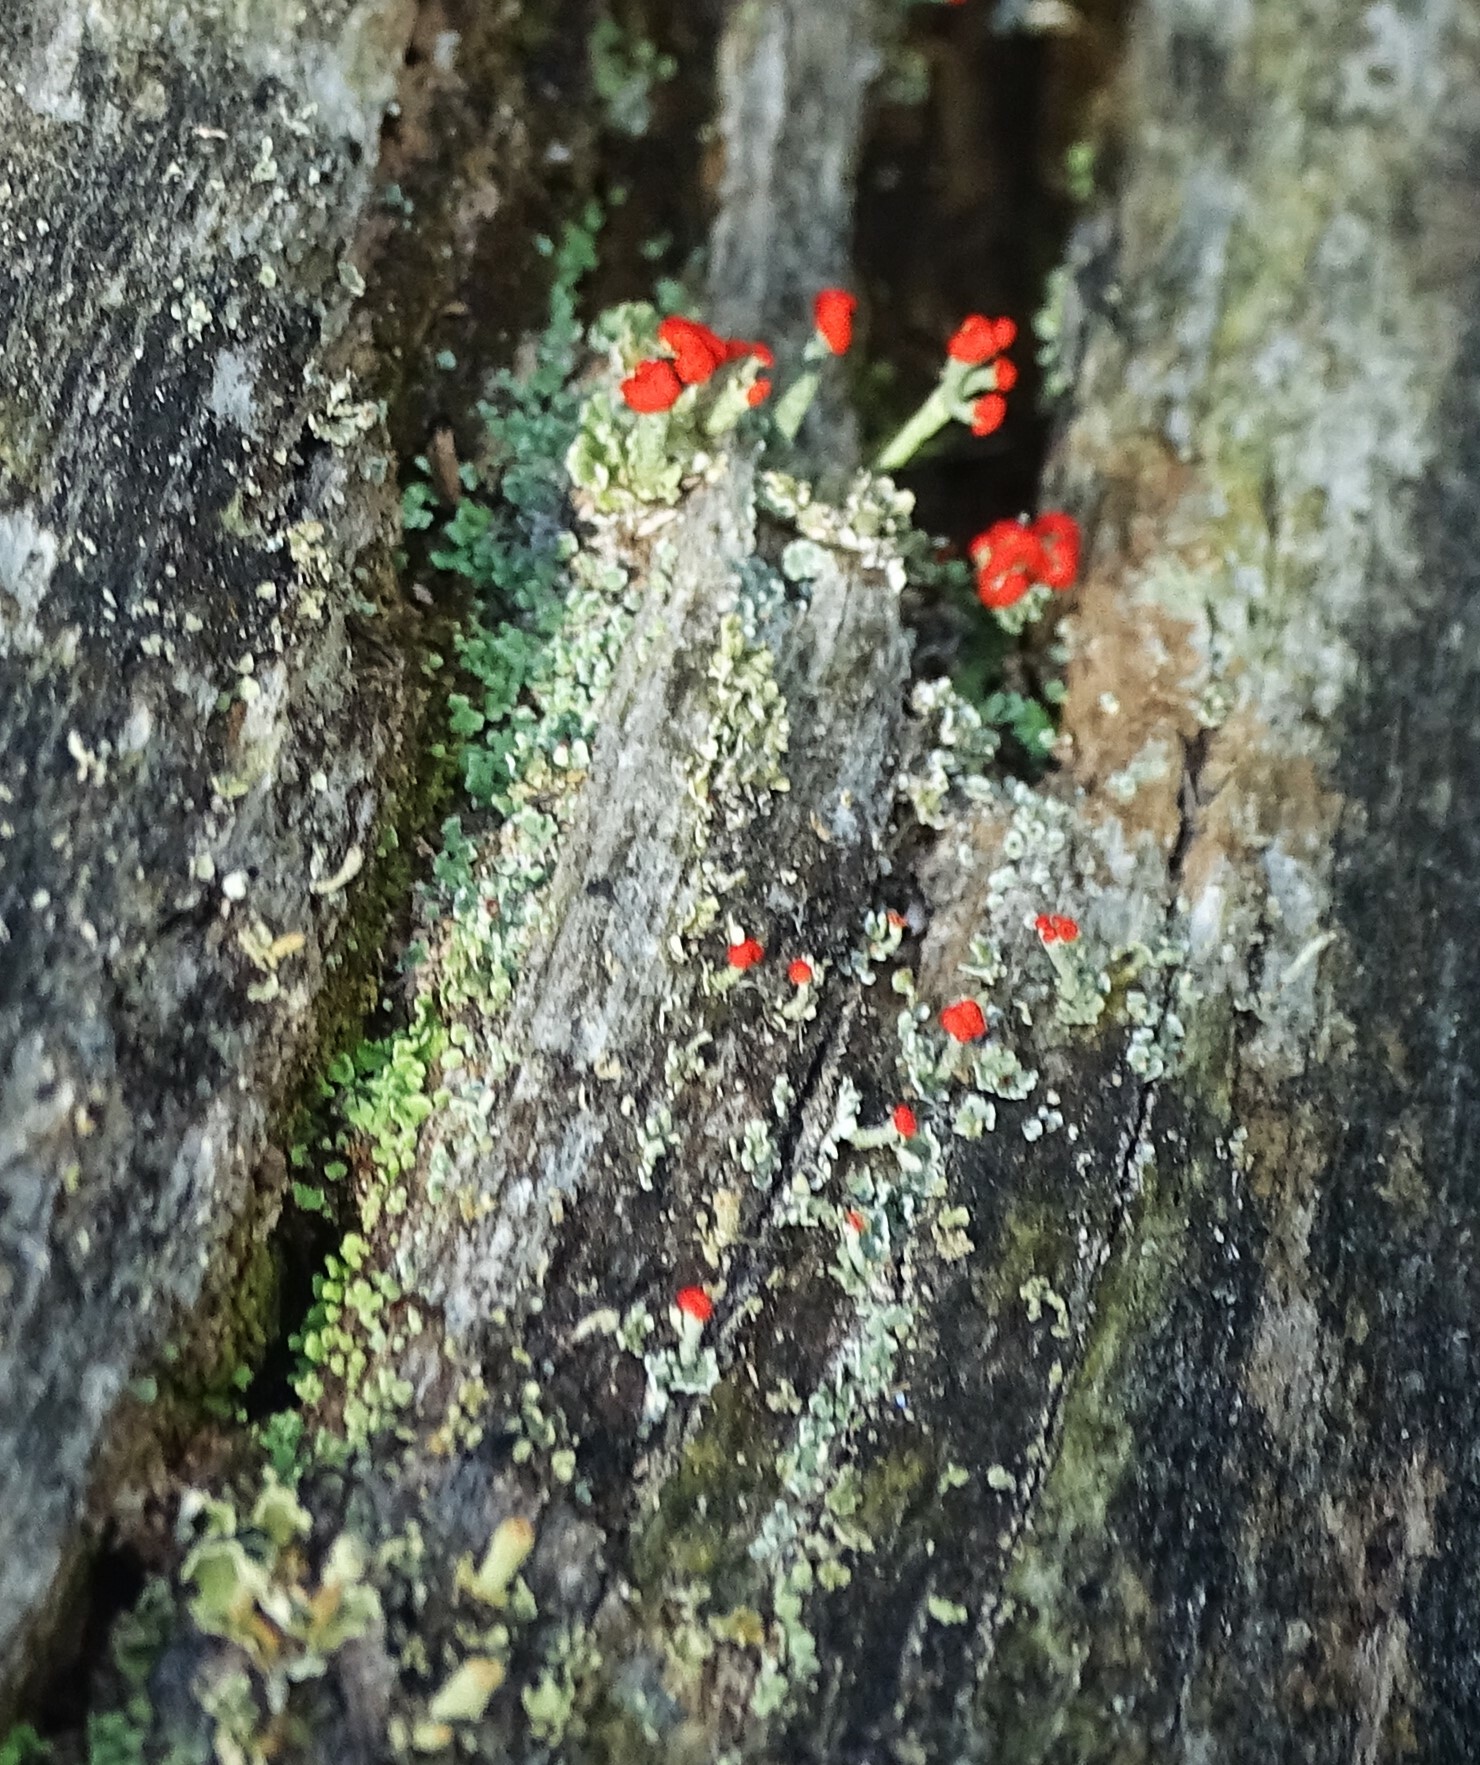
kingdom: Fungi
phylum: Ascomycota
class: Lecanoromycetes
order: Lecanorales
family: Cladoniaceae
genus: Cladonia
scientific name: Cladonia cristatella
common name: British soldier lichen
